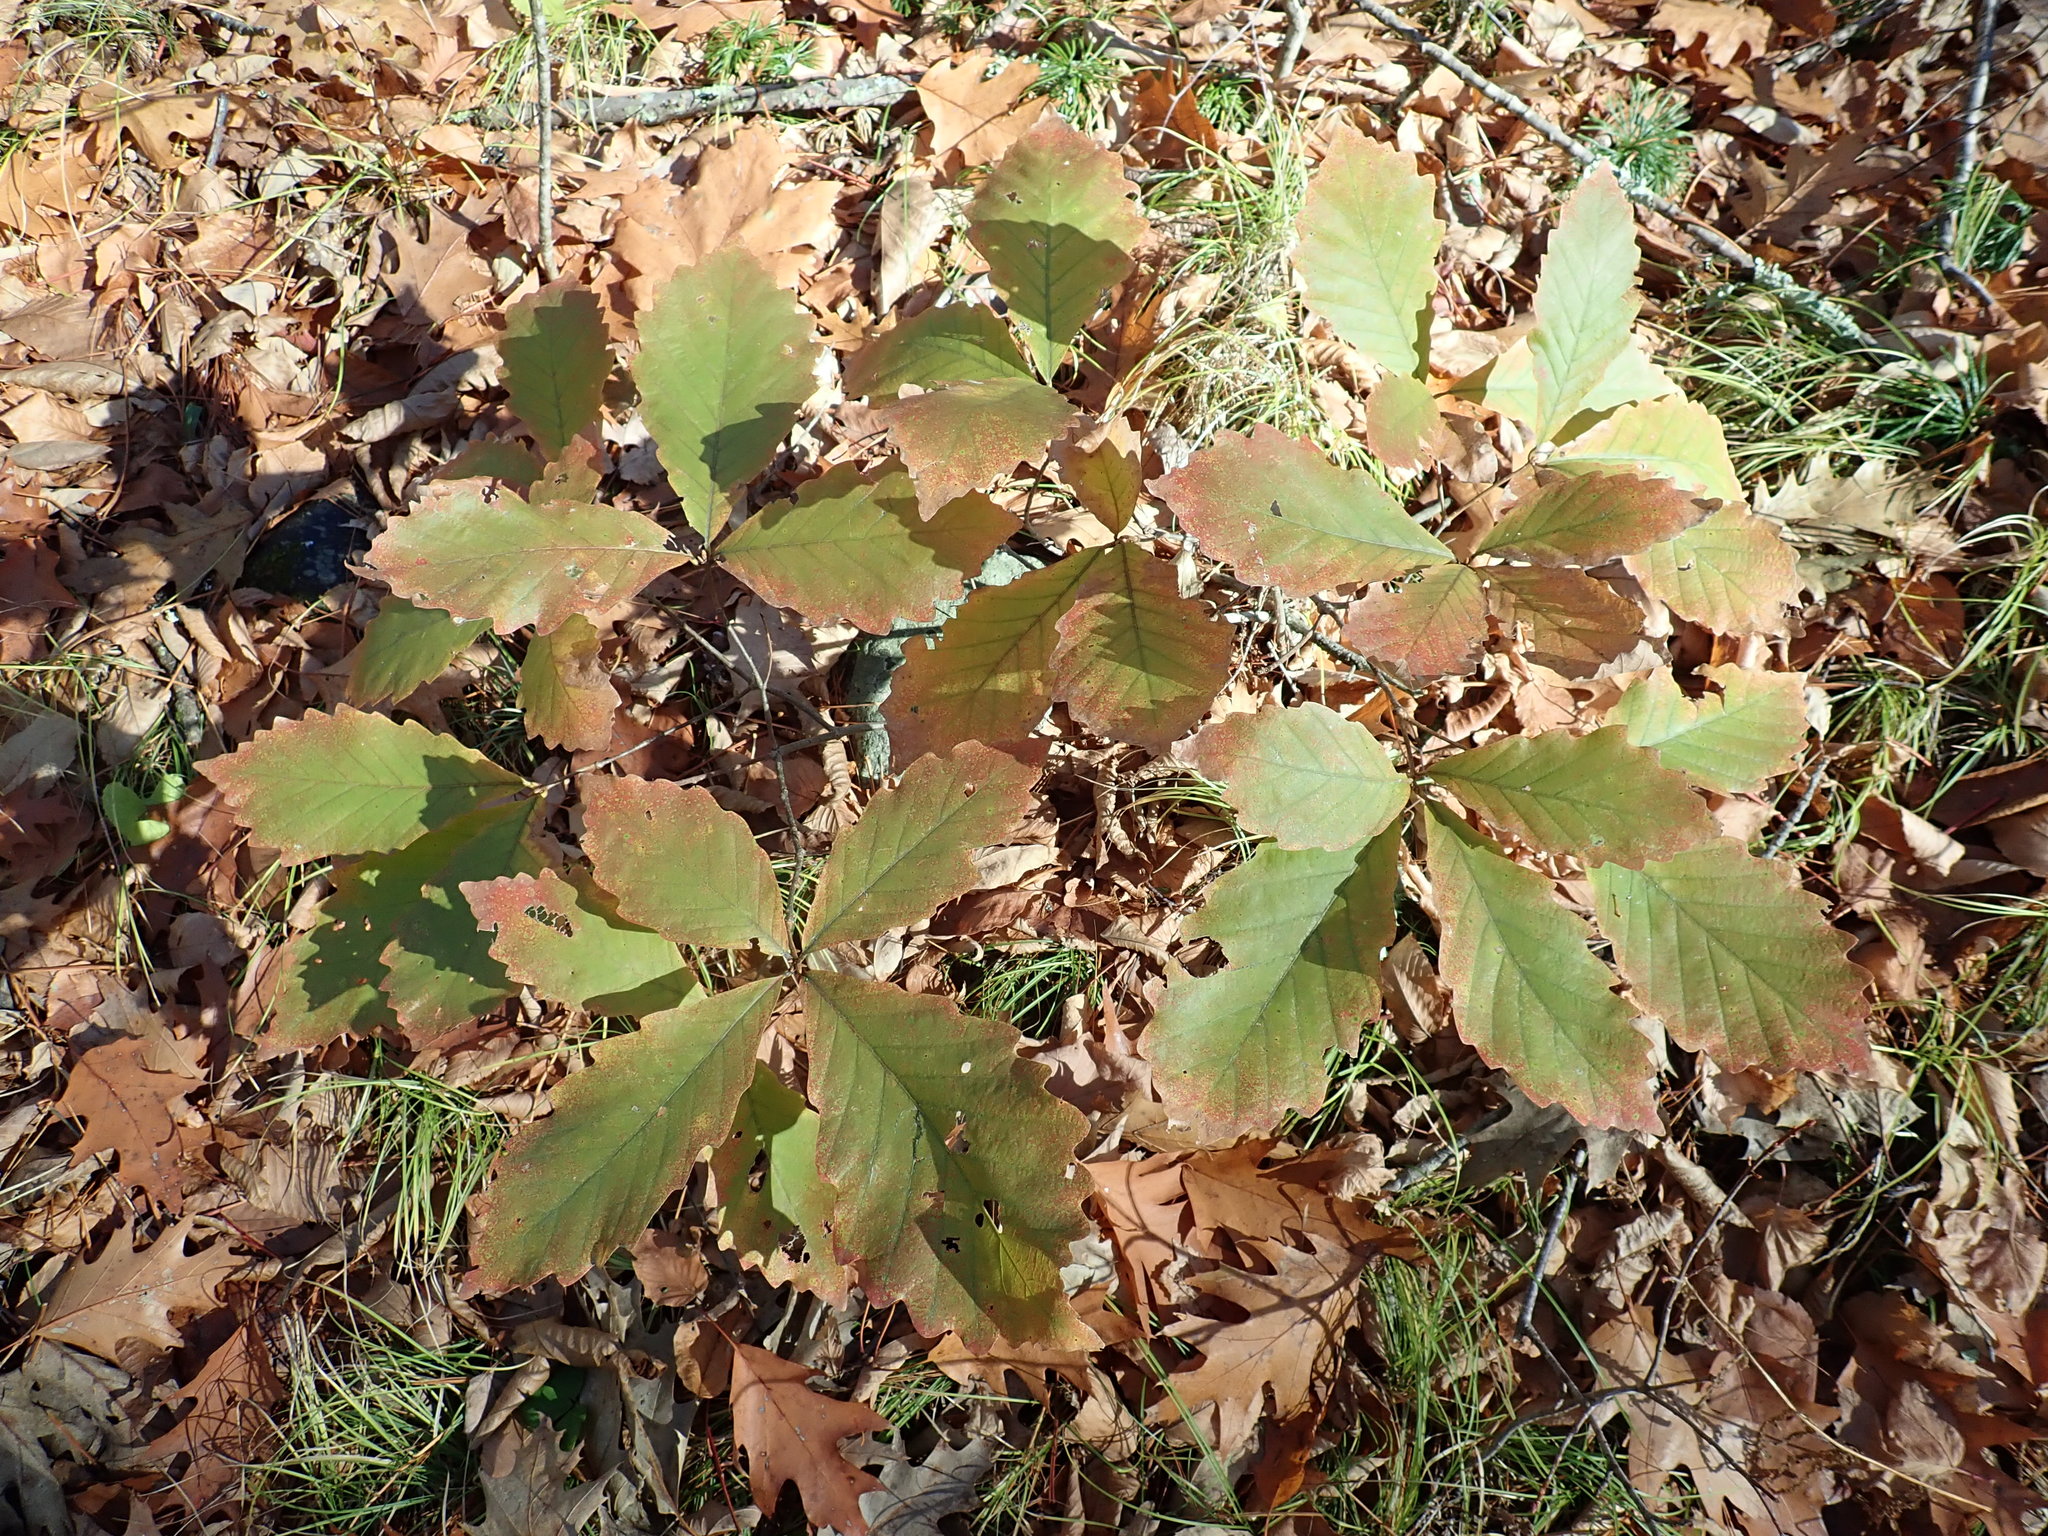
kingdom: Plantae
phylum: Tracheophyta
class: Magnoliopsida
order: Fagales
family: Fagaceae
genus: Quercus
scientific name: Quercus montana
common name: Chestnut oak
